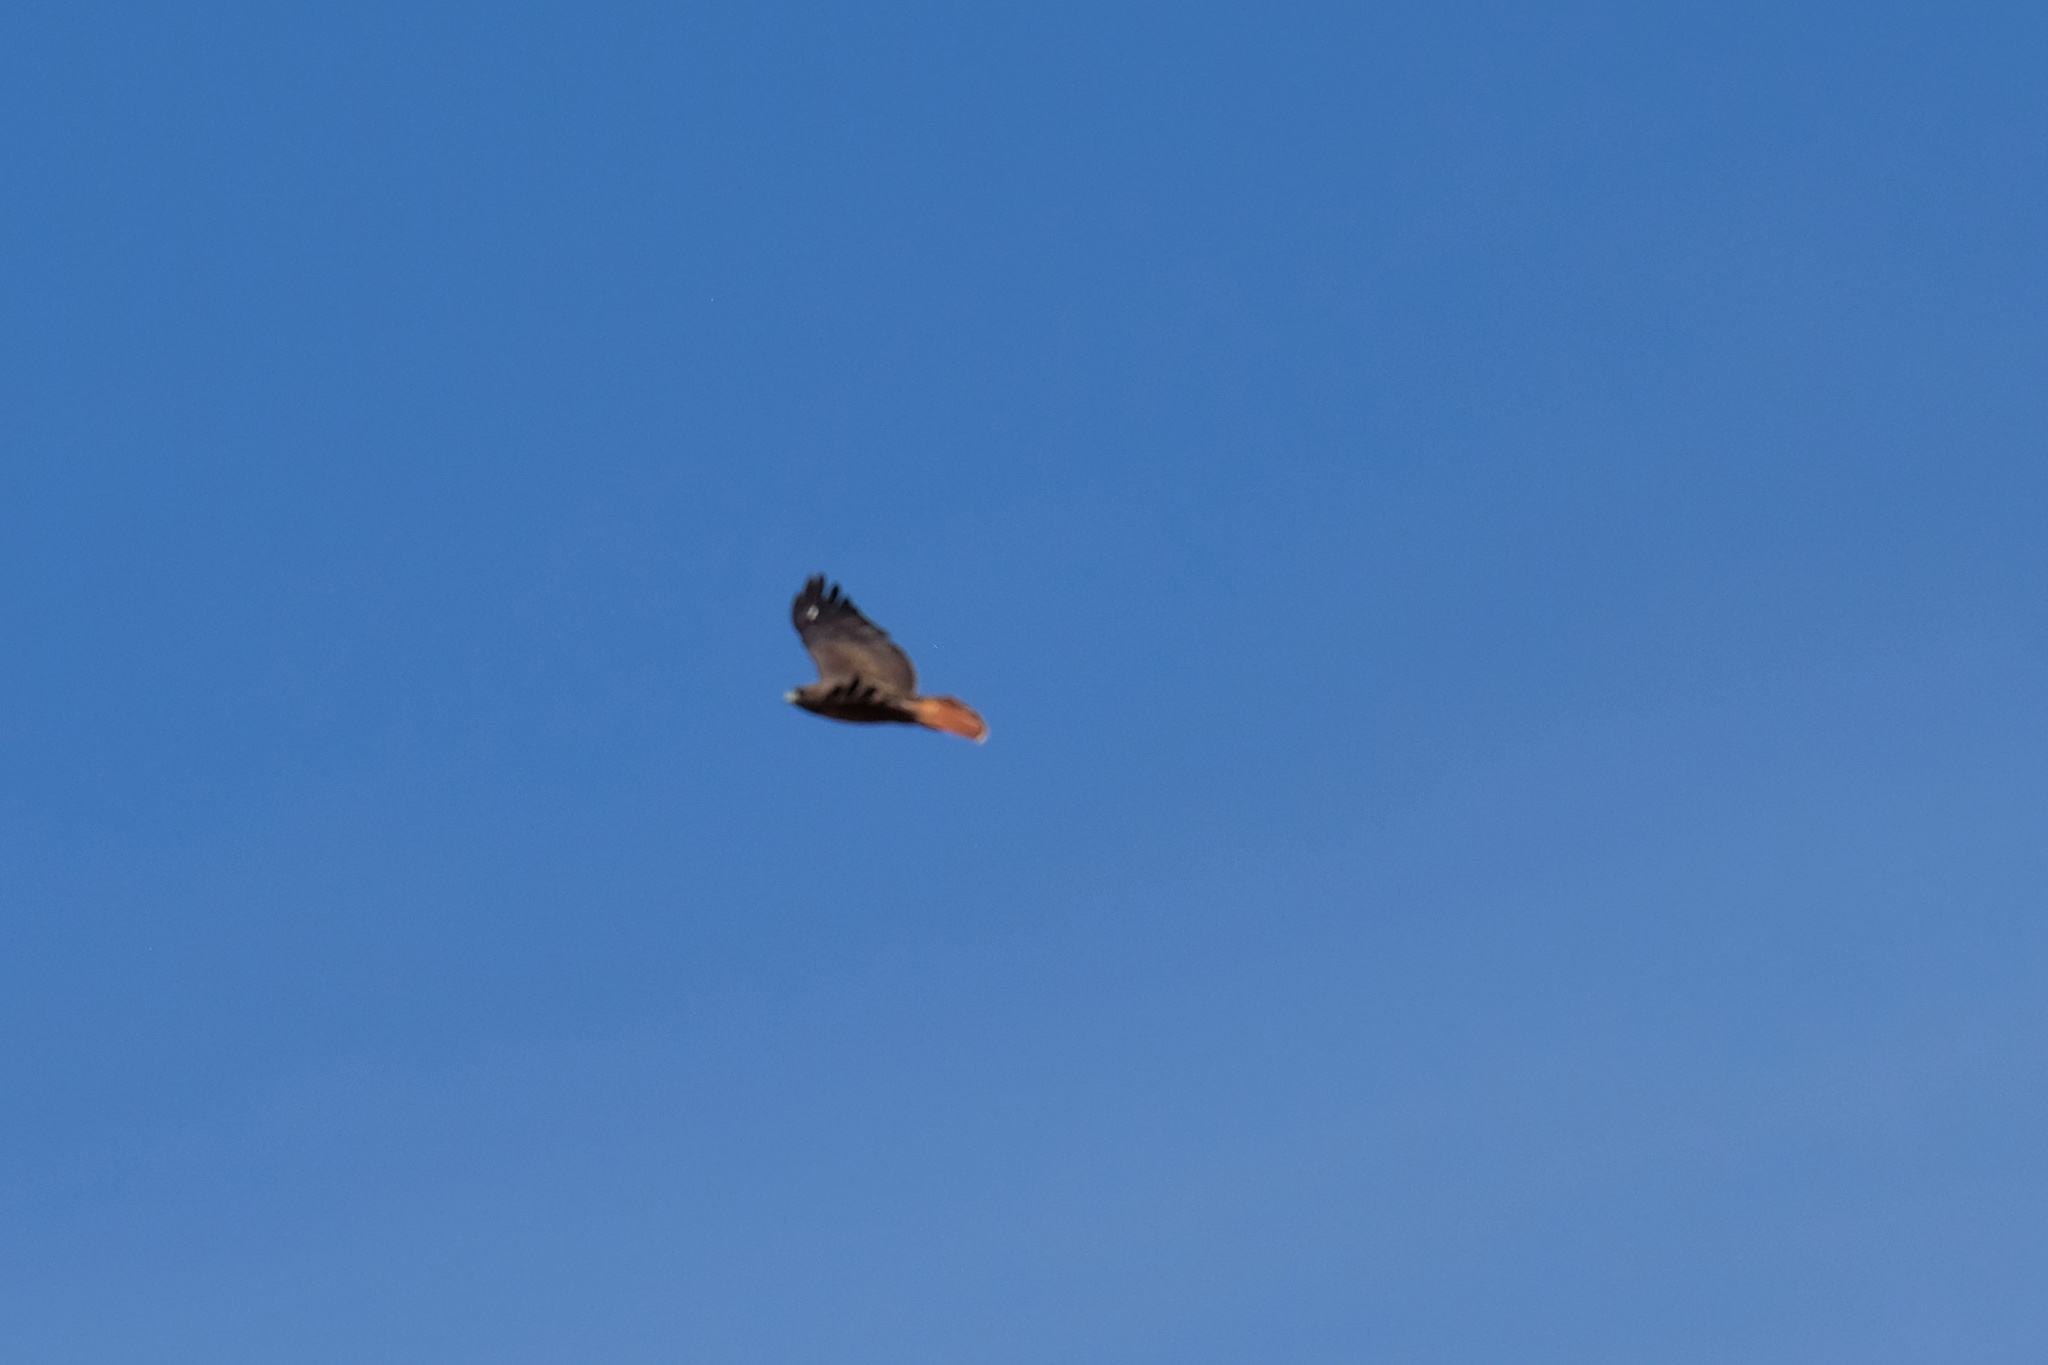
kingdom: Animalia
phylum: Chordata
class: Aves
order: Accipitriformes
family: Accipitridae
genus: Buteo
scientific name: Buteo jamaicensis
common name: Red-tailed hawk
